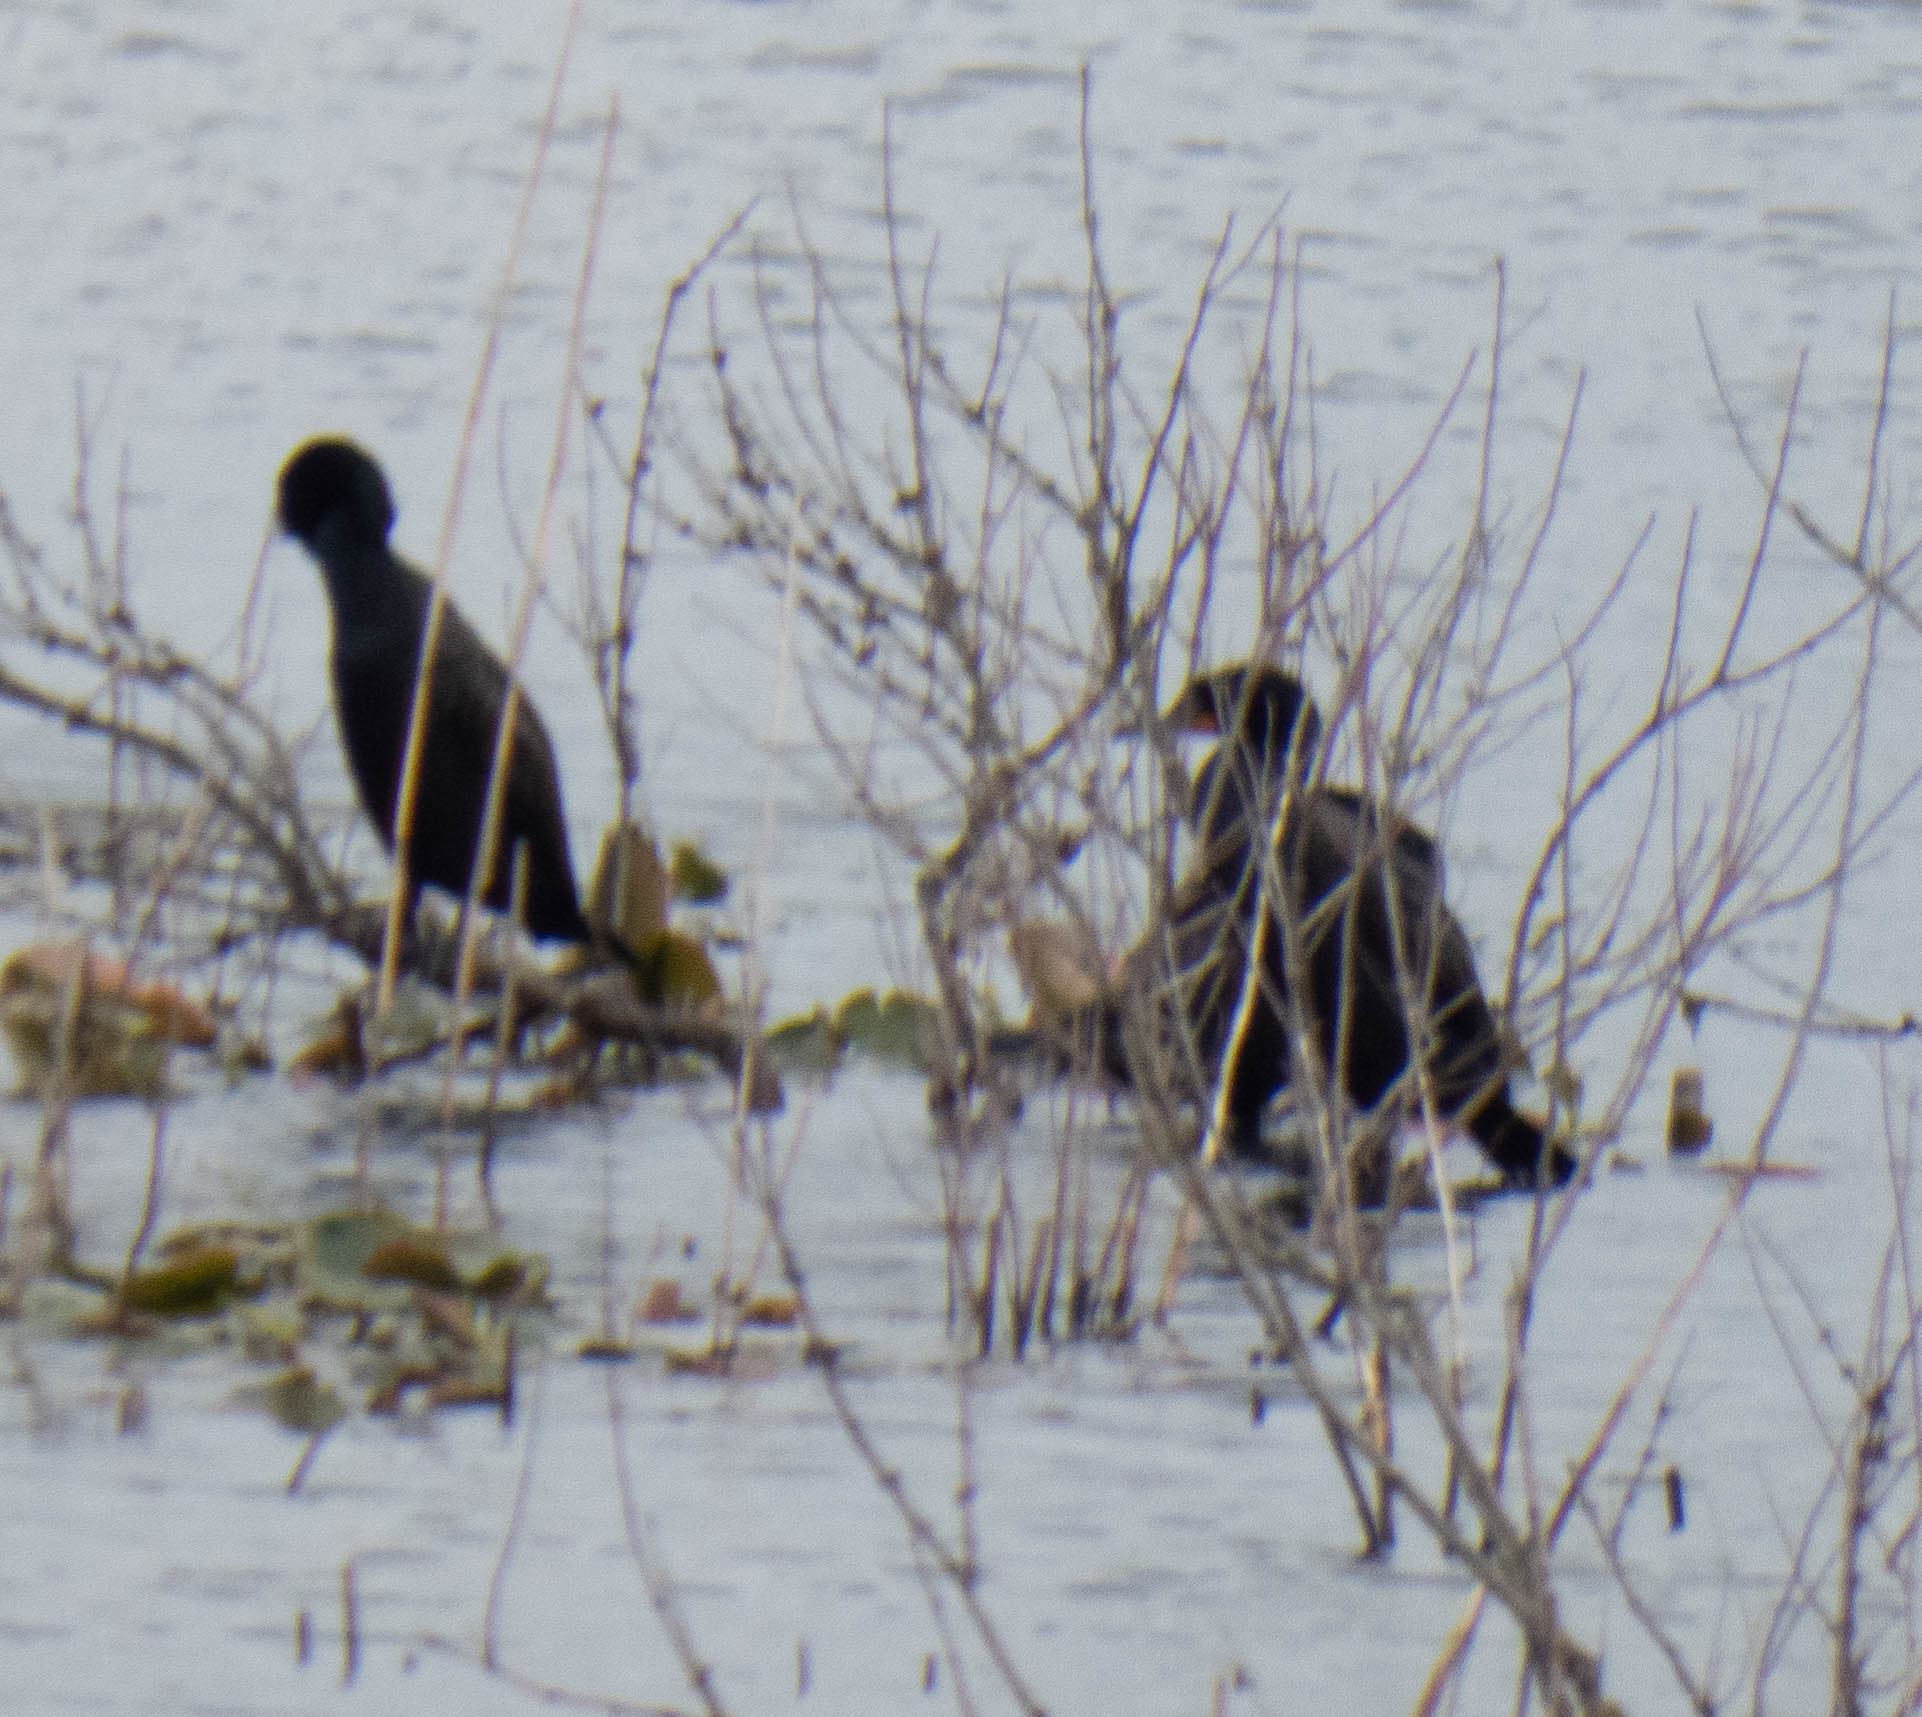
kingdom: Animalia
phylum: Chordata
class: Aves
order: Suliformes
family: Phalacrocoracidae
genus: Phalacrocorax
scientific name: Phalacrocorax auritus
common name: Double-crested cormorant
